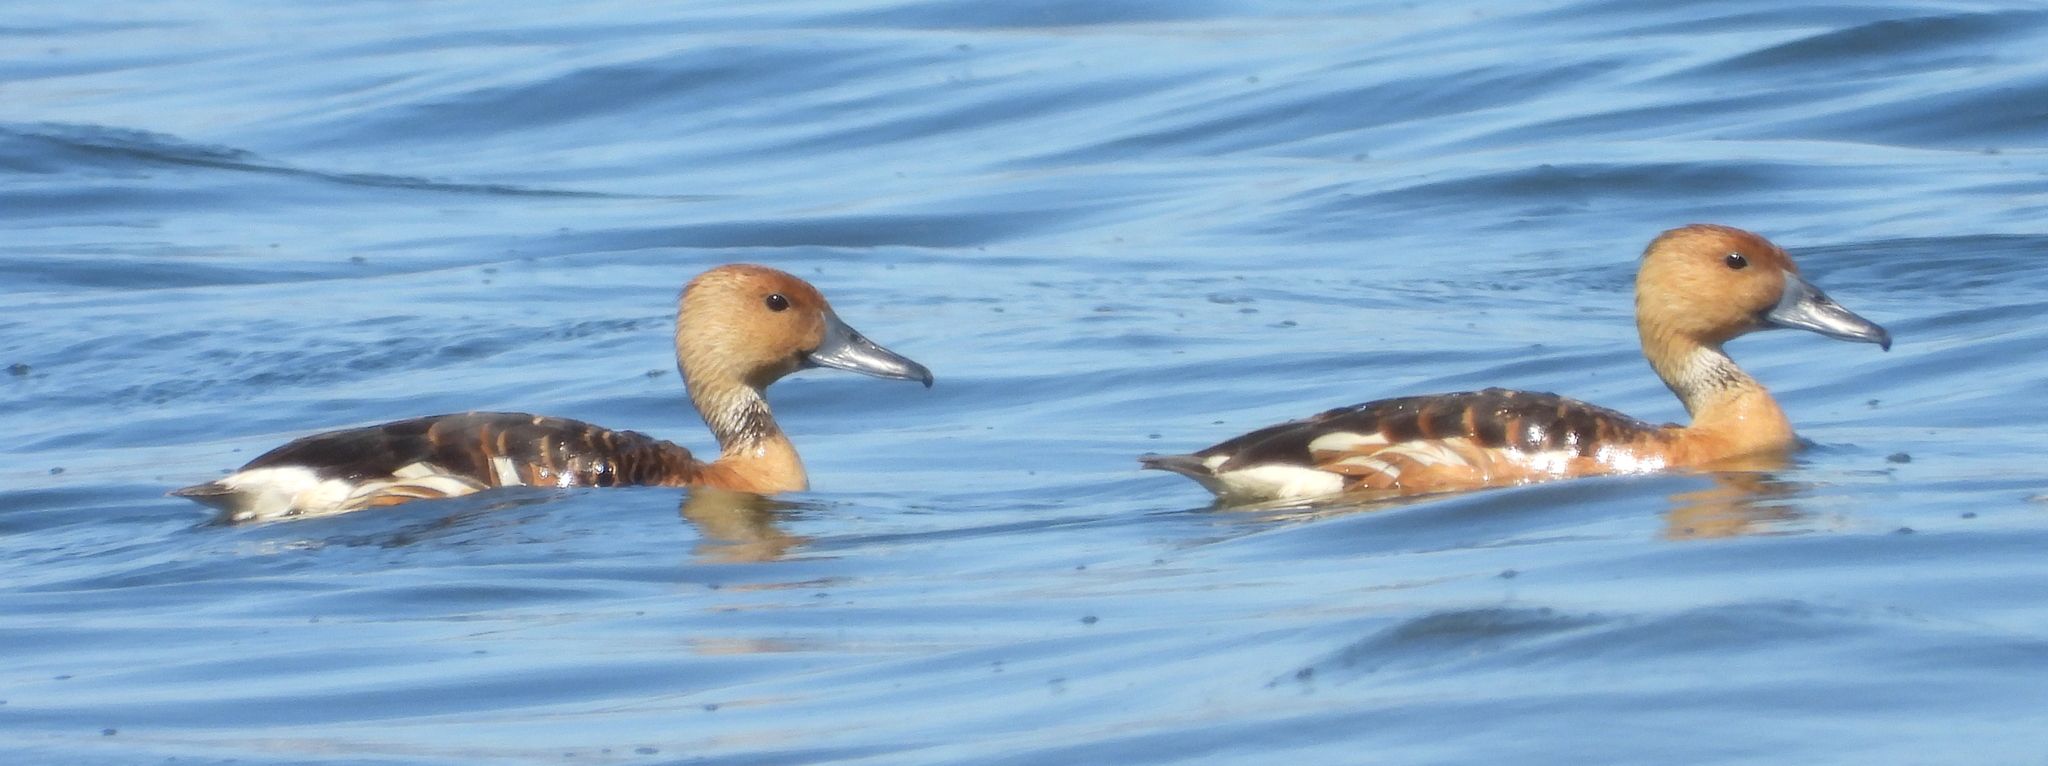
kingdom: Animalia
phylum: Chordata
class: Aves
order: Anseriformes
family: Anatidae
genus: Dendrocygna
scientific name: Dendrocygna bicolor
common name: Fulvous whistling duck
